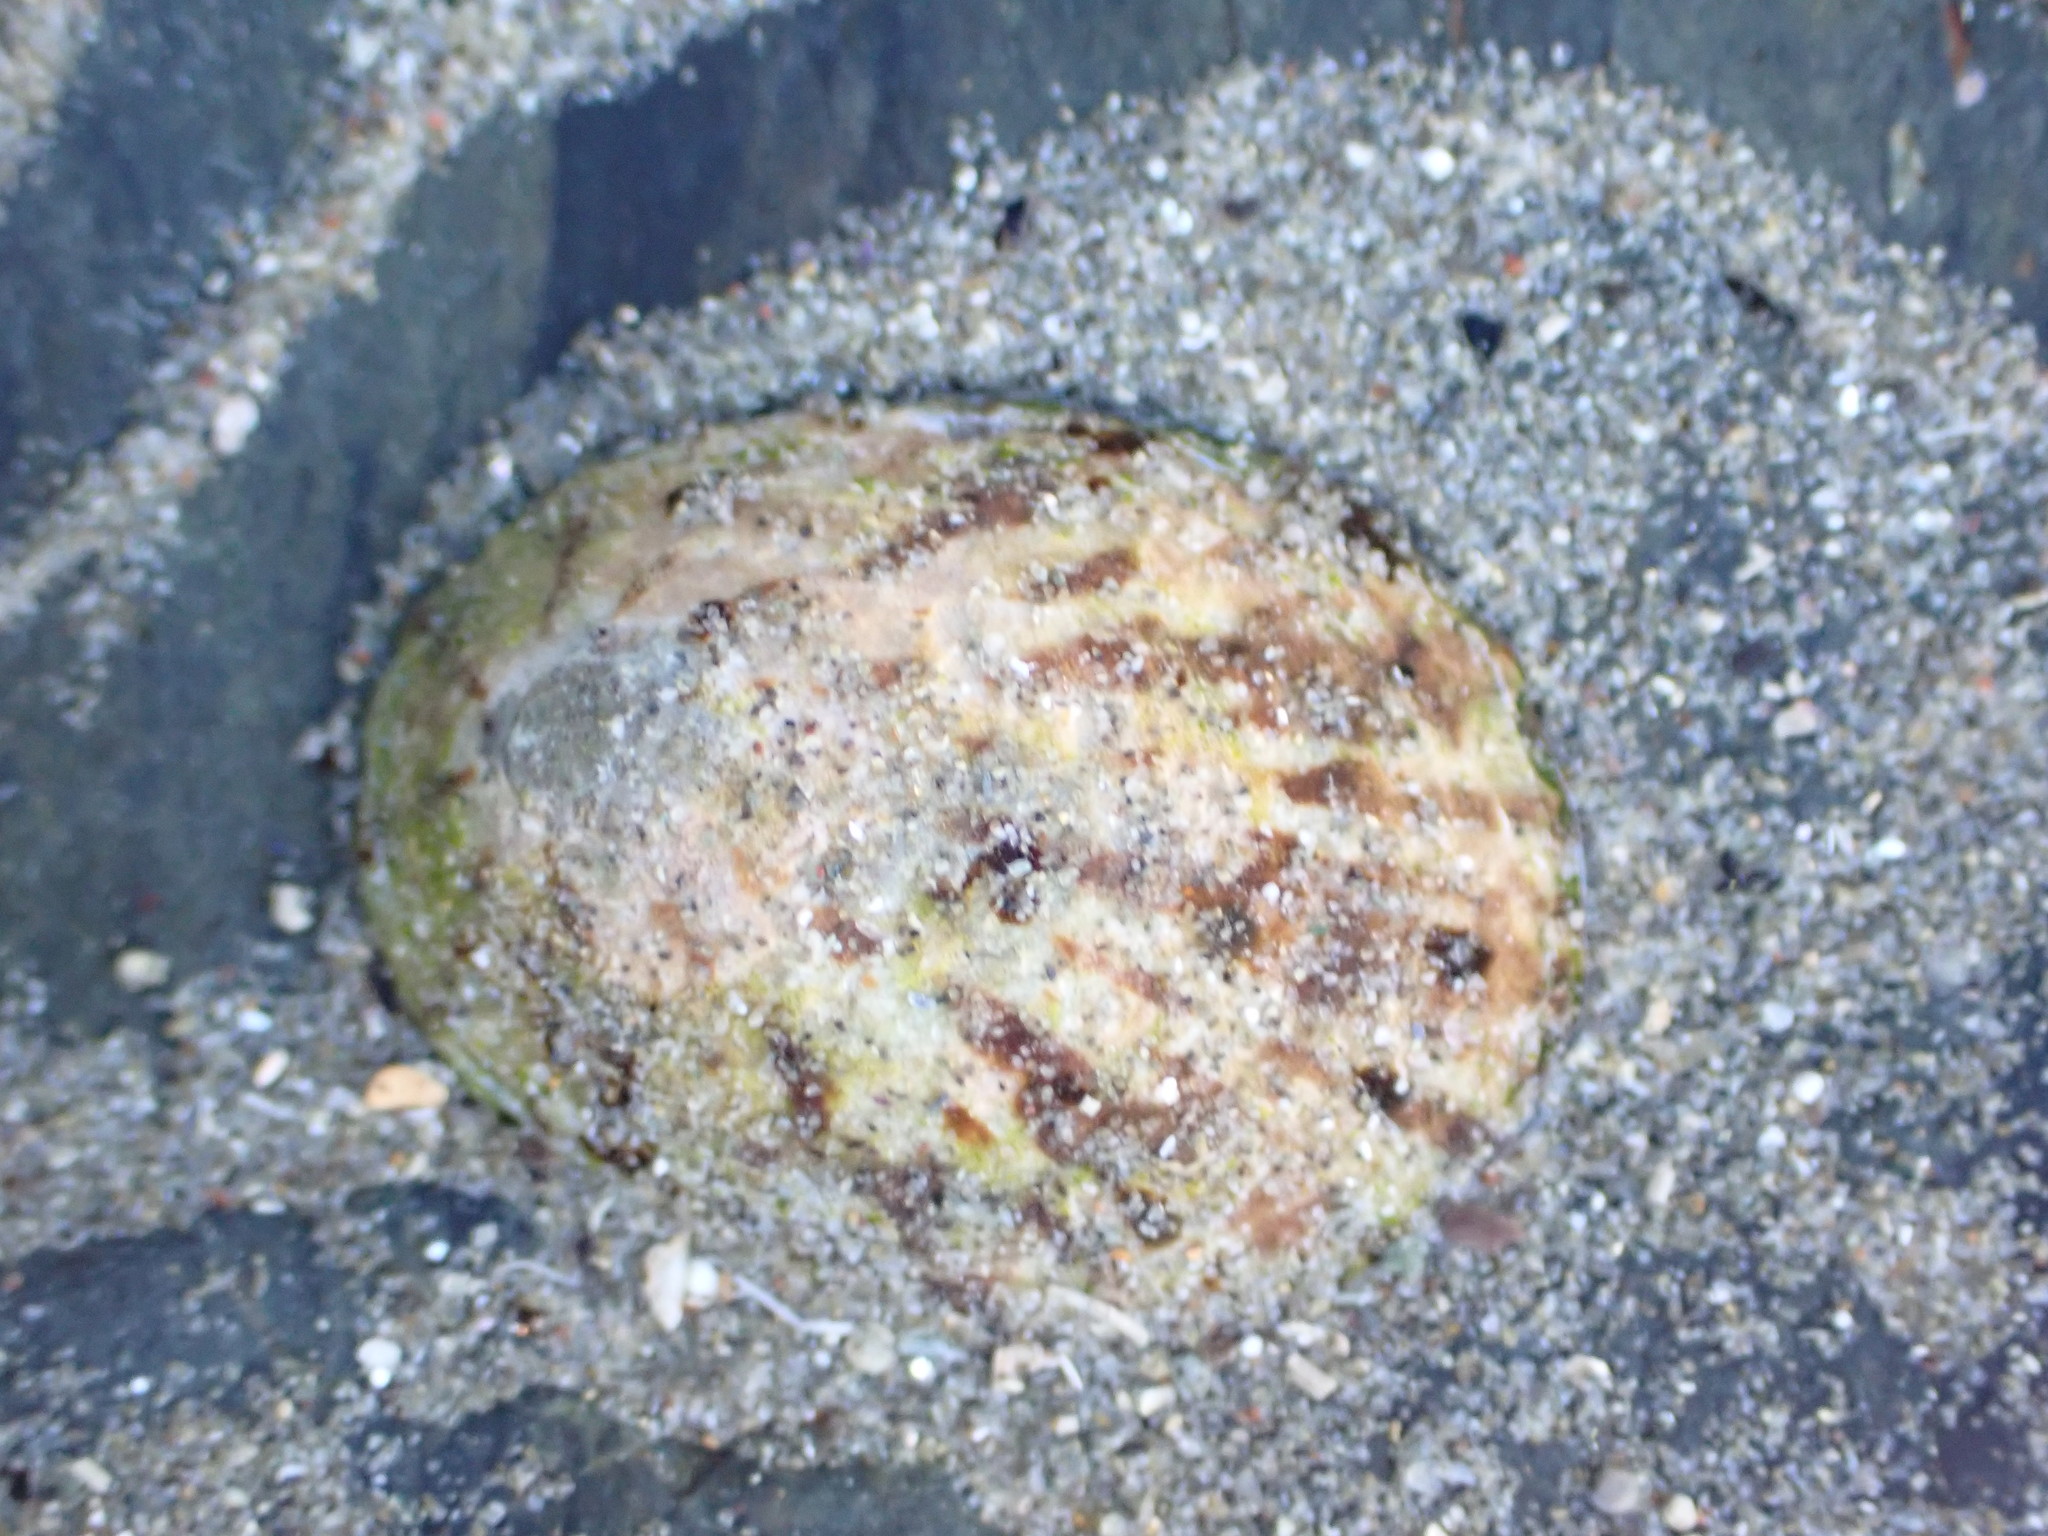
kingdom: Animalia
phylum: Mollusca
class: Gastropoda
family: Nacellidae
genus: Cellana
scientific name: Cellana radians
